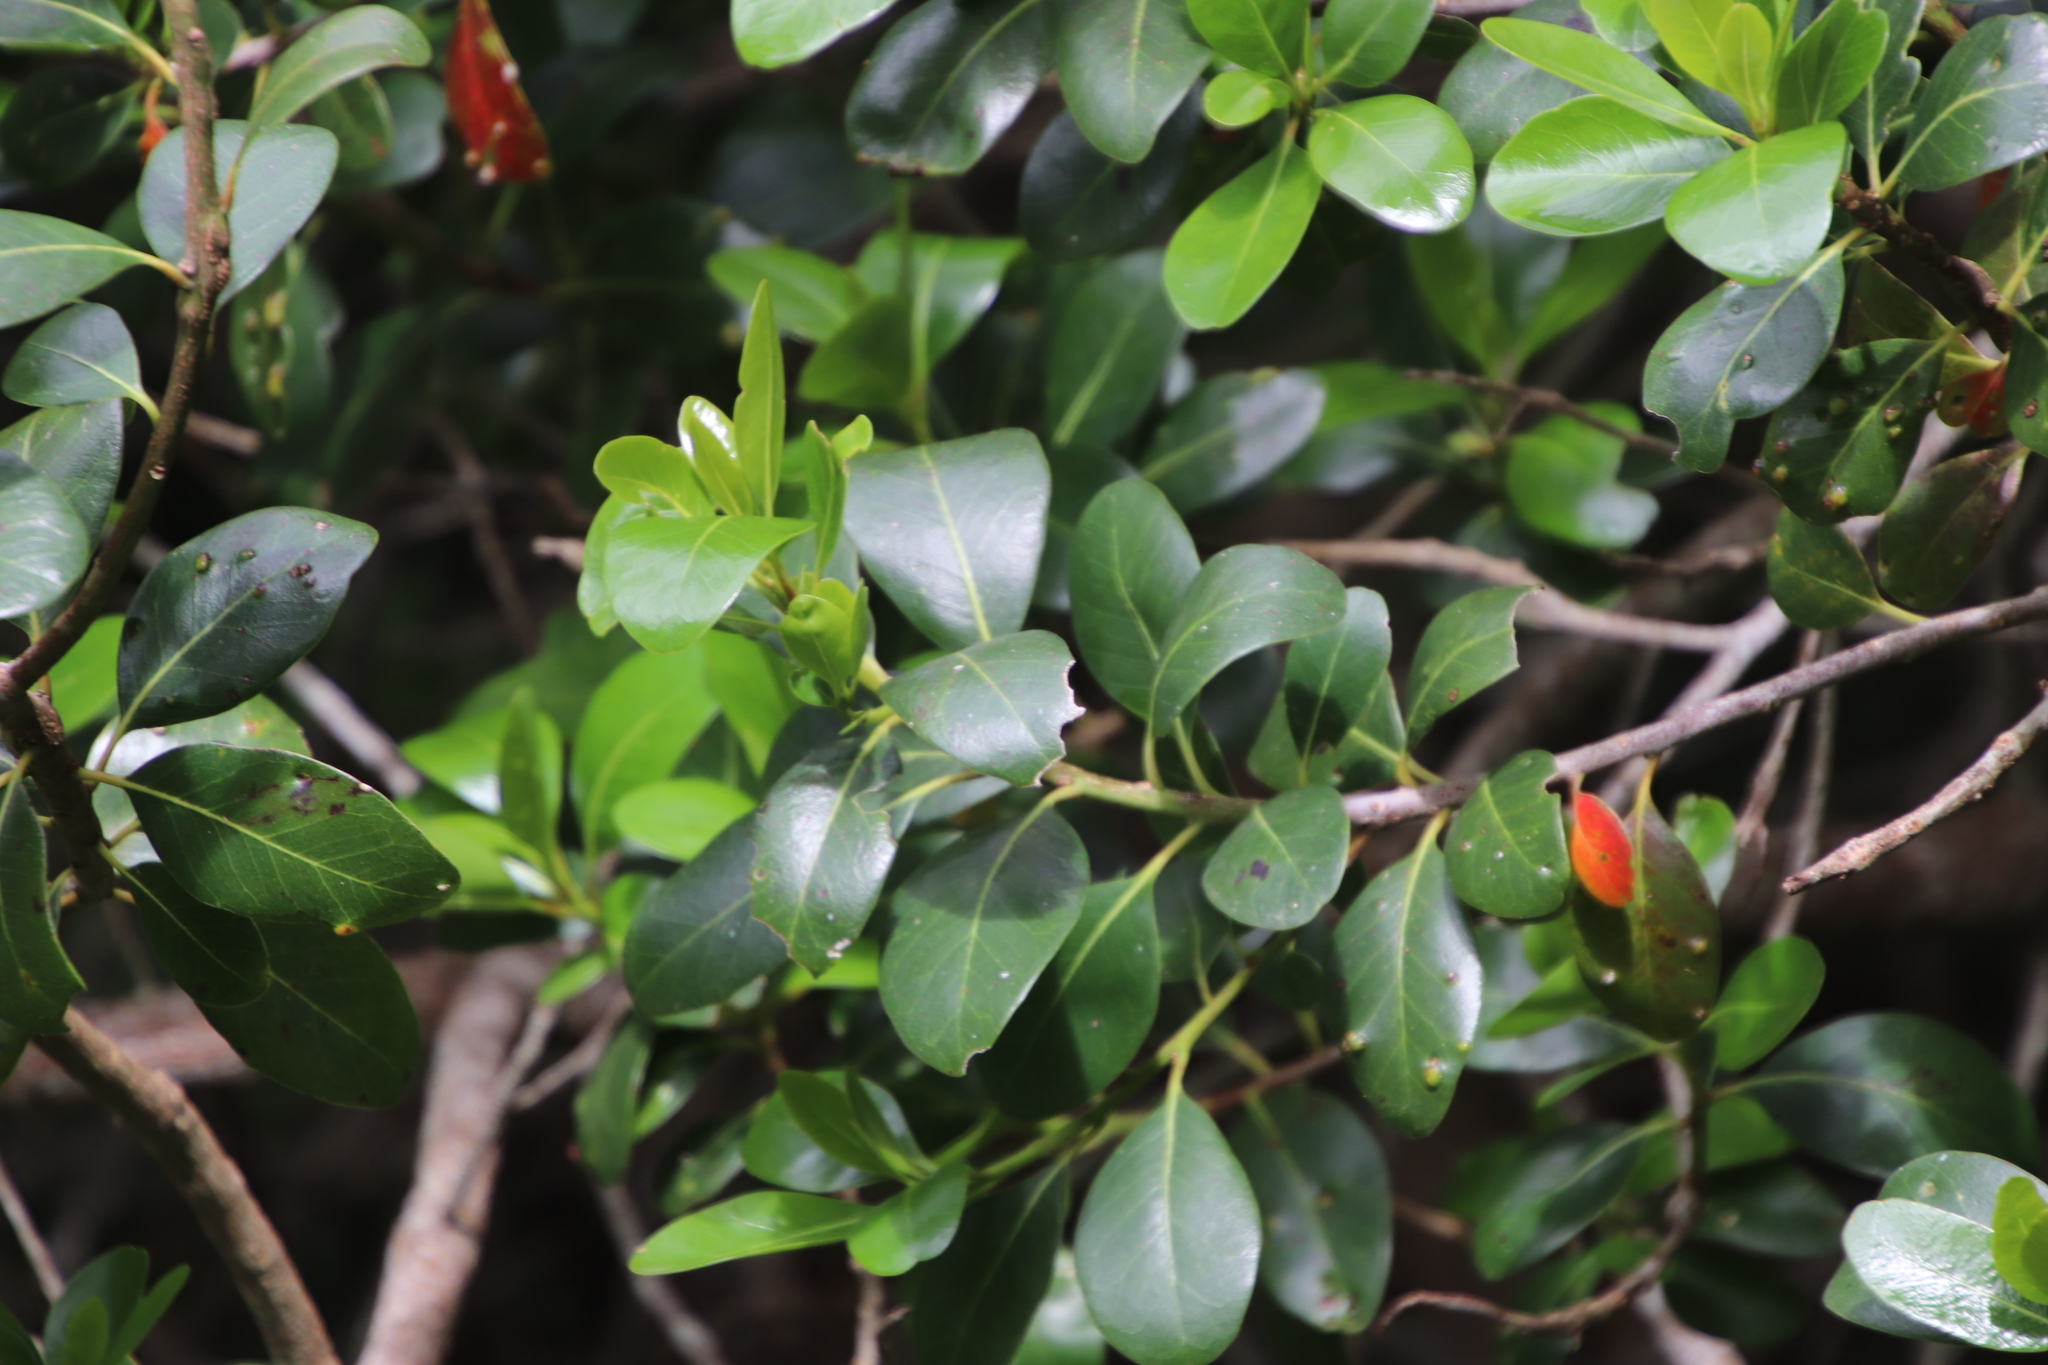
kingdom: Plantae
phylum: Tracheophyta
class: Magnoliopsida
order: Ericales
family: Sapotaceae
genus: Sideroxylon
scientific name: Sideroxylon inerme
